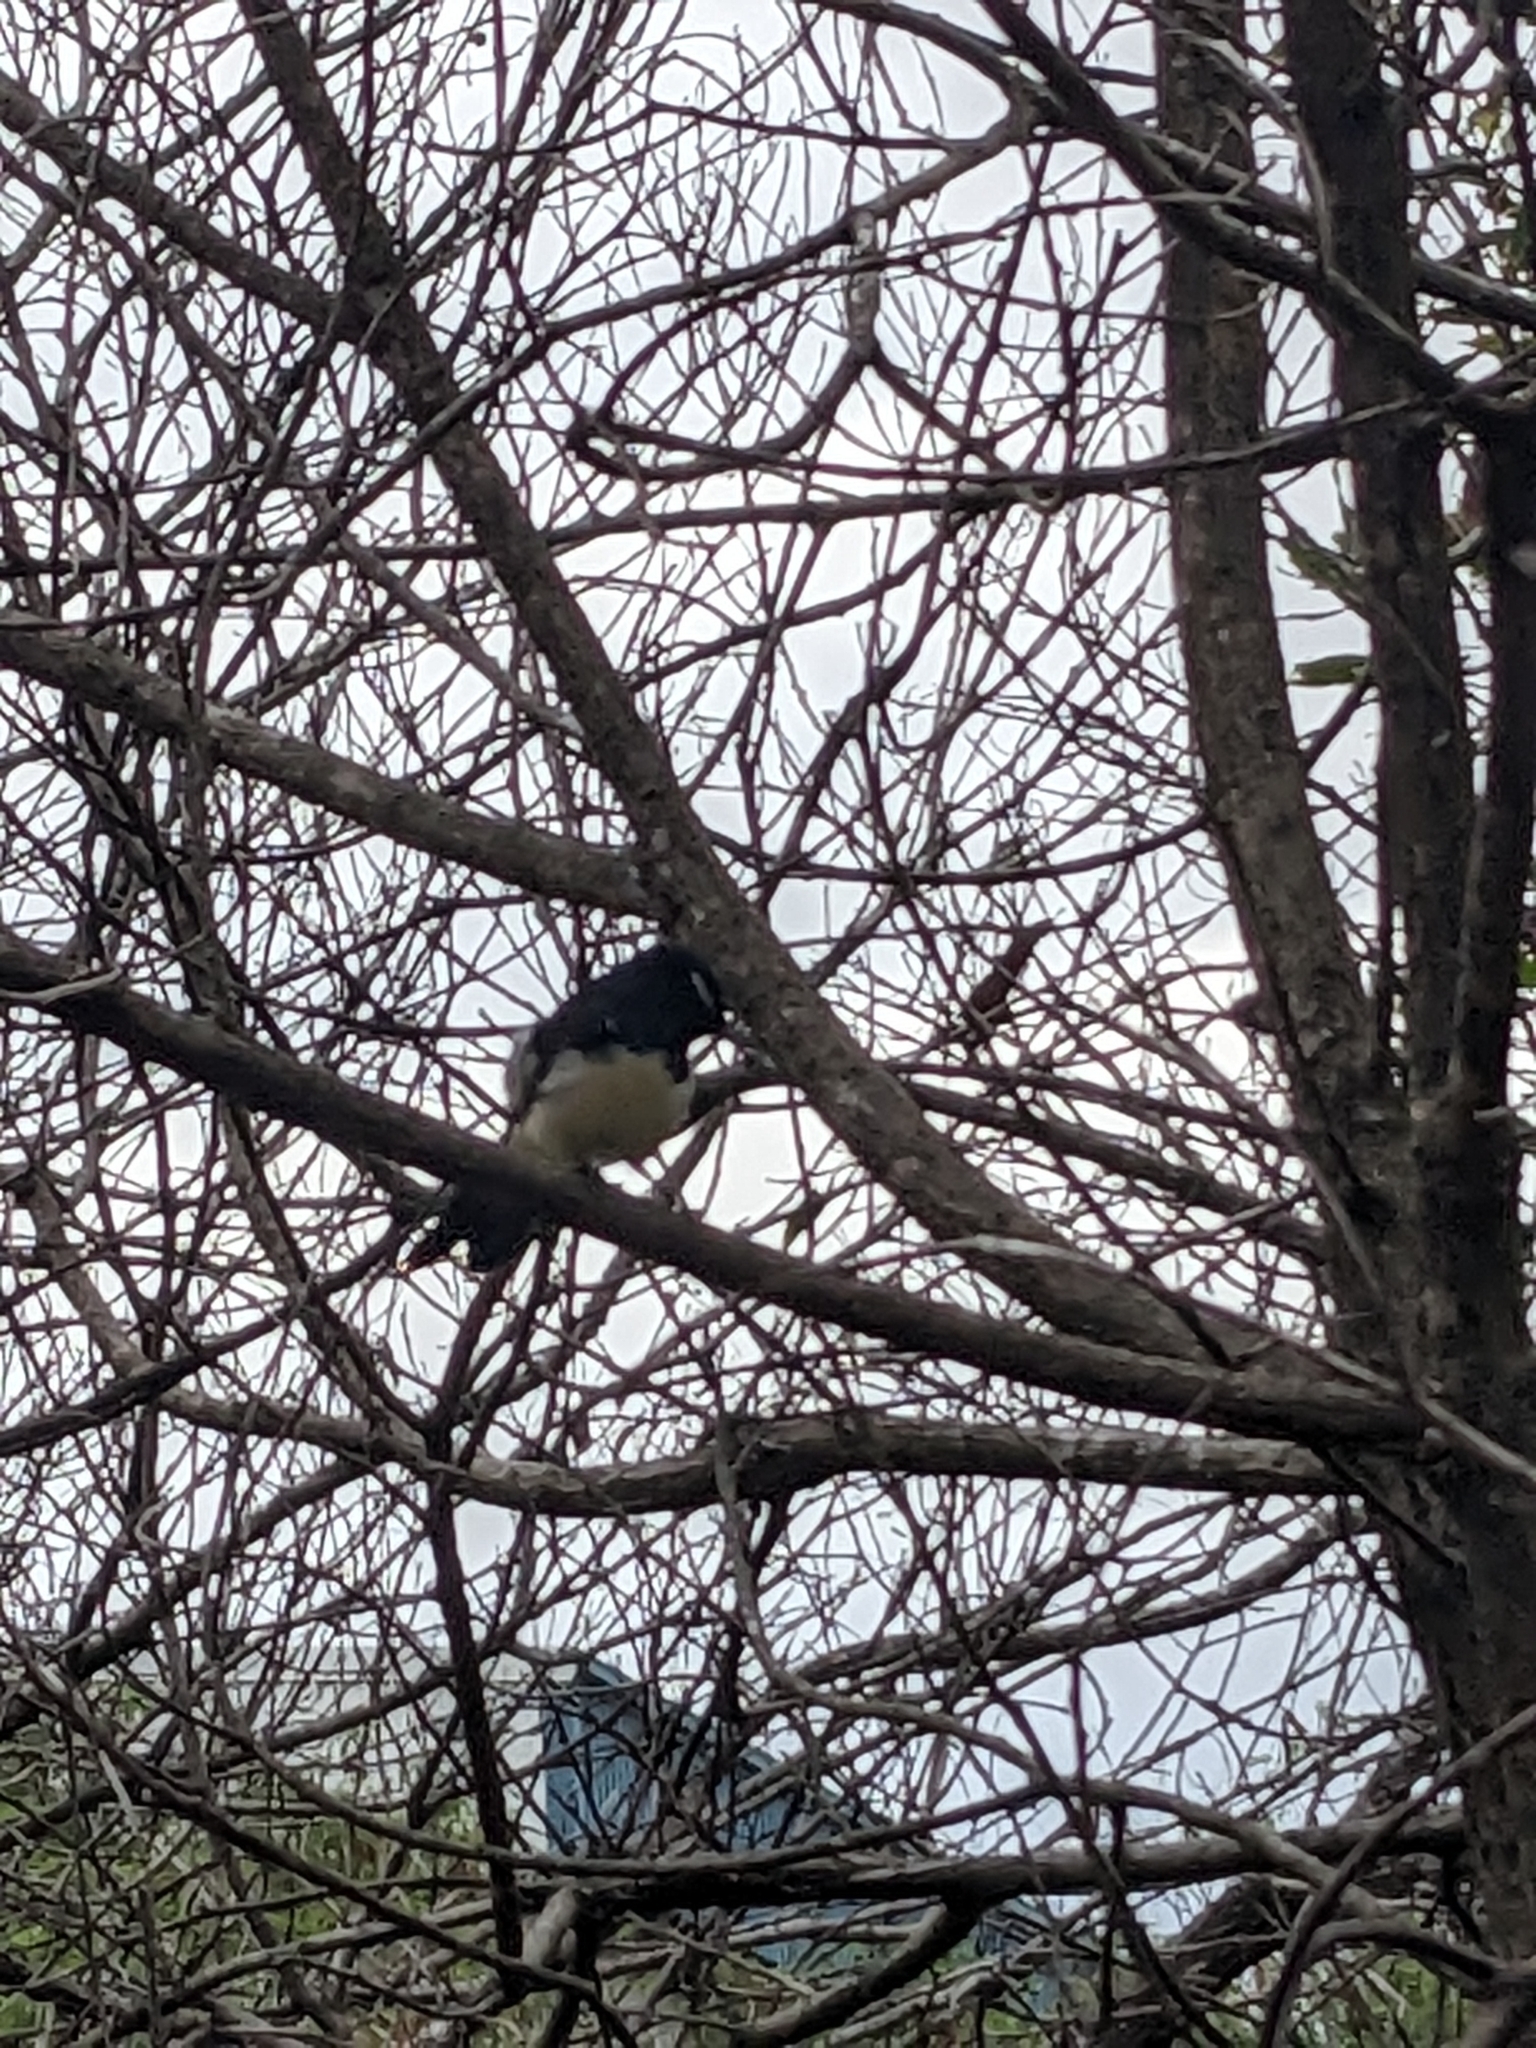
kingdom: Animalia
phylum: Chordata
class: Aves
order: Passeriformes
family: Rhipiduridae
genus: Rhipidura
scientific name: Rhipidura leucophrys
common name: Willie wagtail
